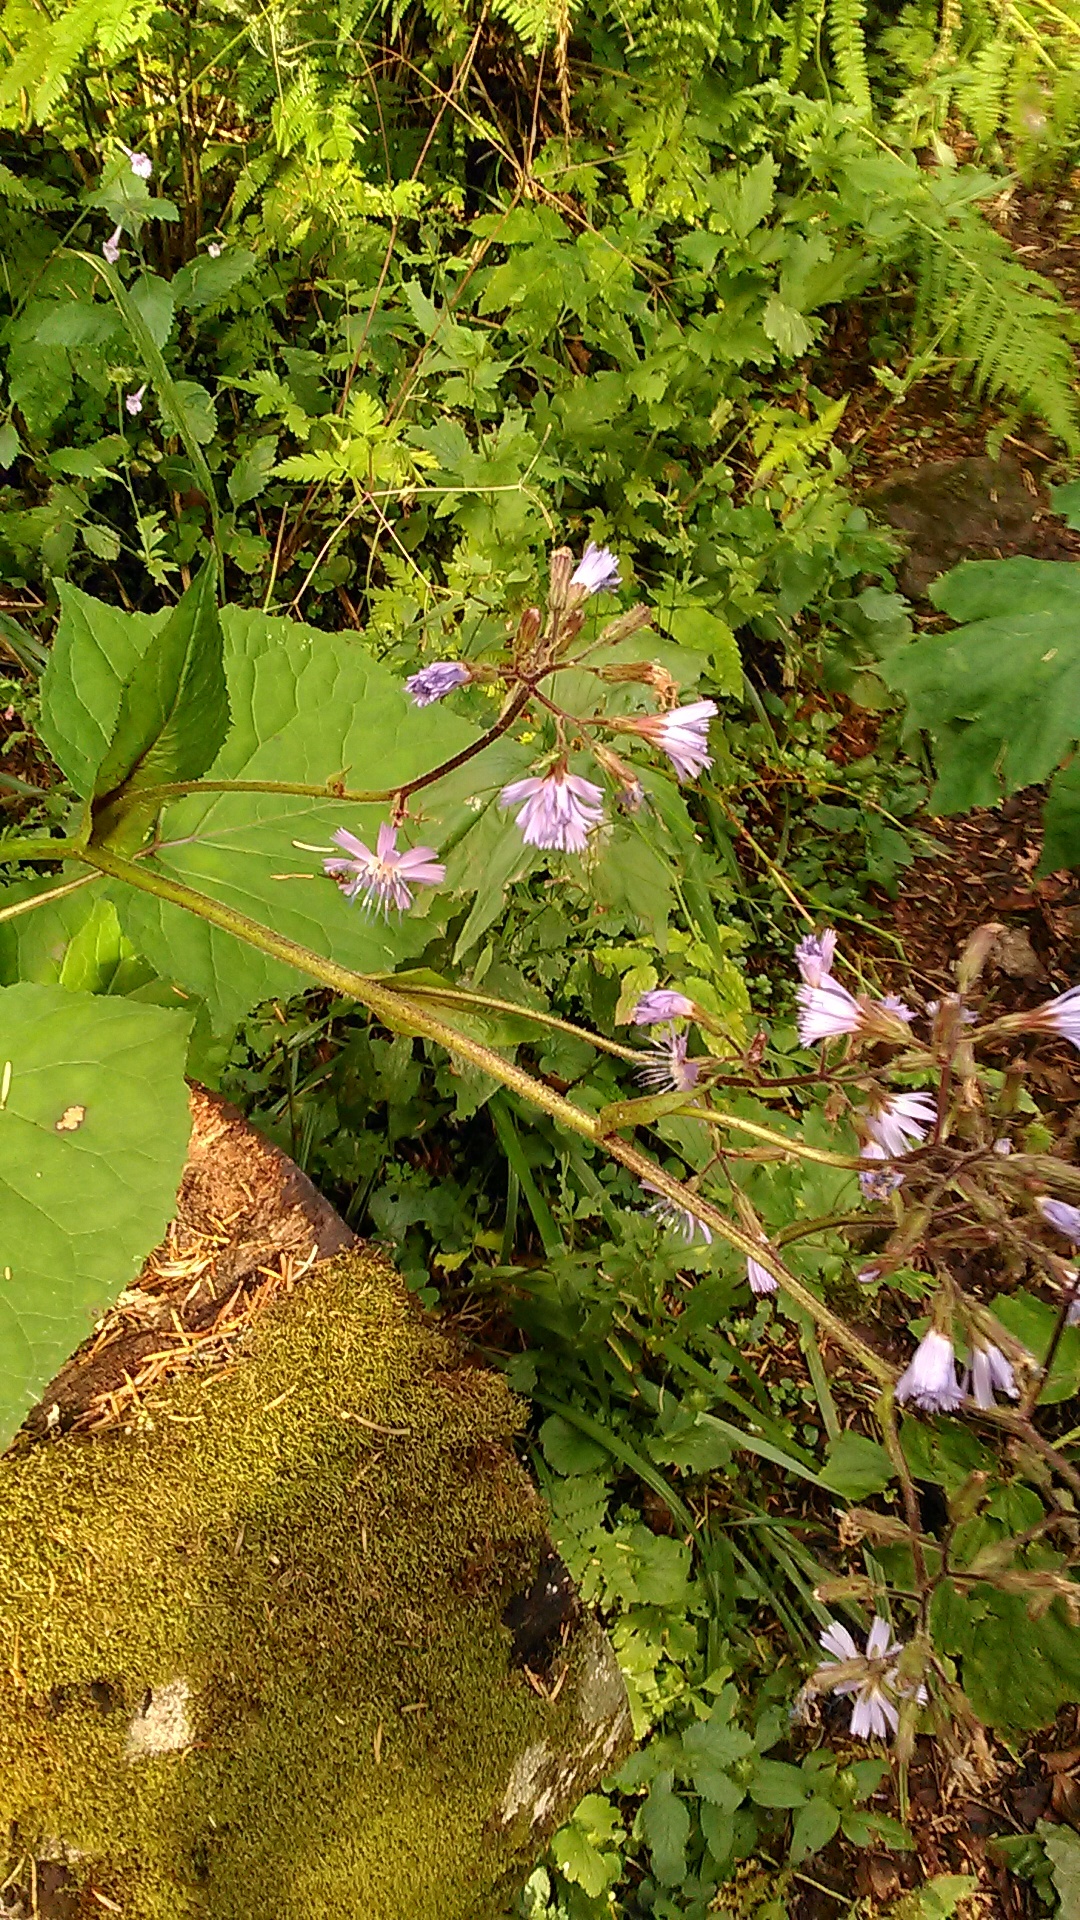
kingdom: Plantae
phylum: Tracheophyta
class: Magnoliopsida
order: Asterales
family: Asteraceae
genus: Cicerbita
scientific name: Cicerbita petiolata
